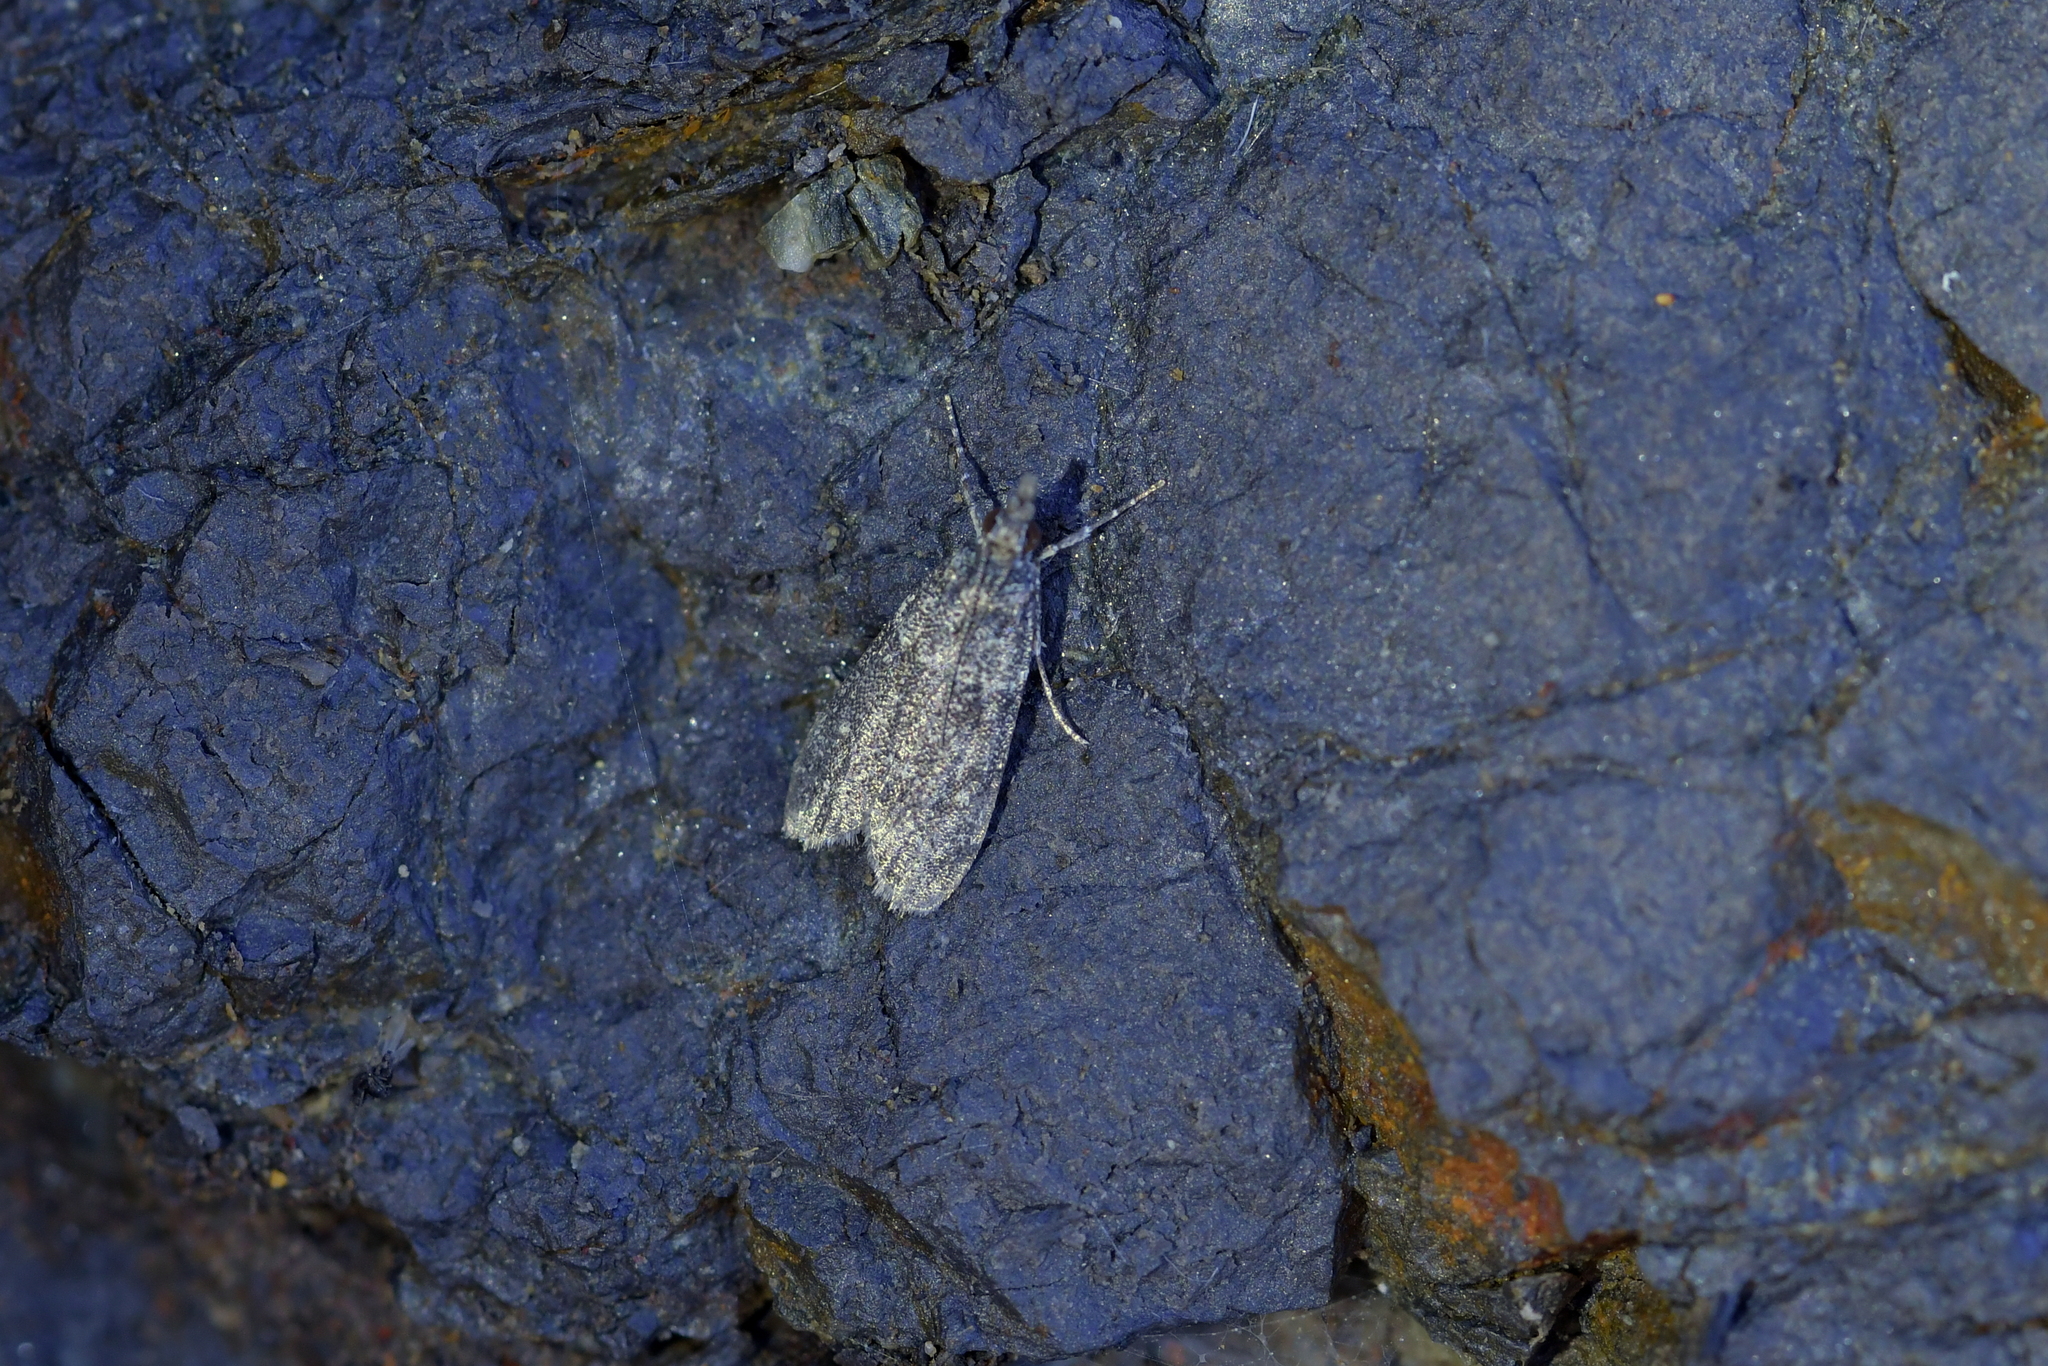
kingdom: Animalia
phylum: Arthropoda
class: Insecta
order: Lepidoptera
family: Crambidae
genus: Eudonia
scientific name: Eudonia
